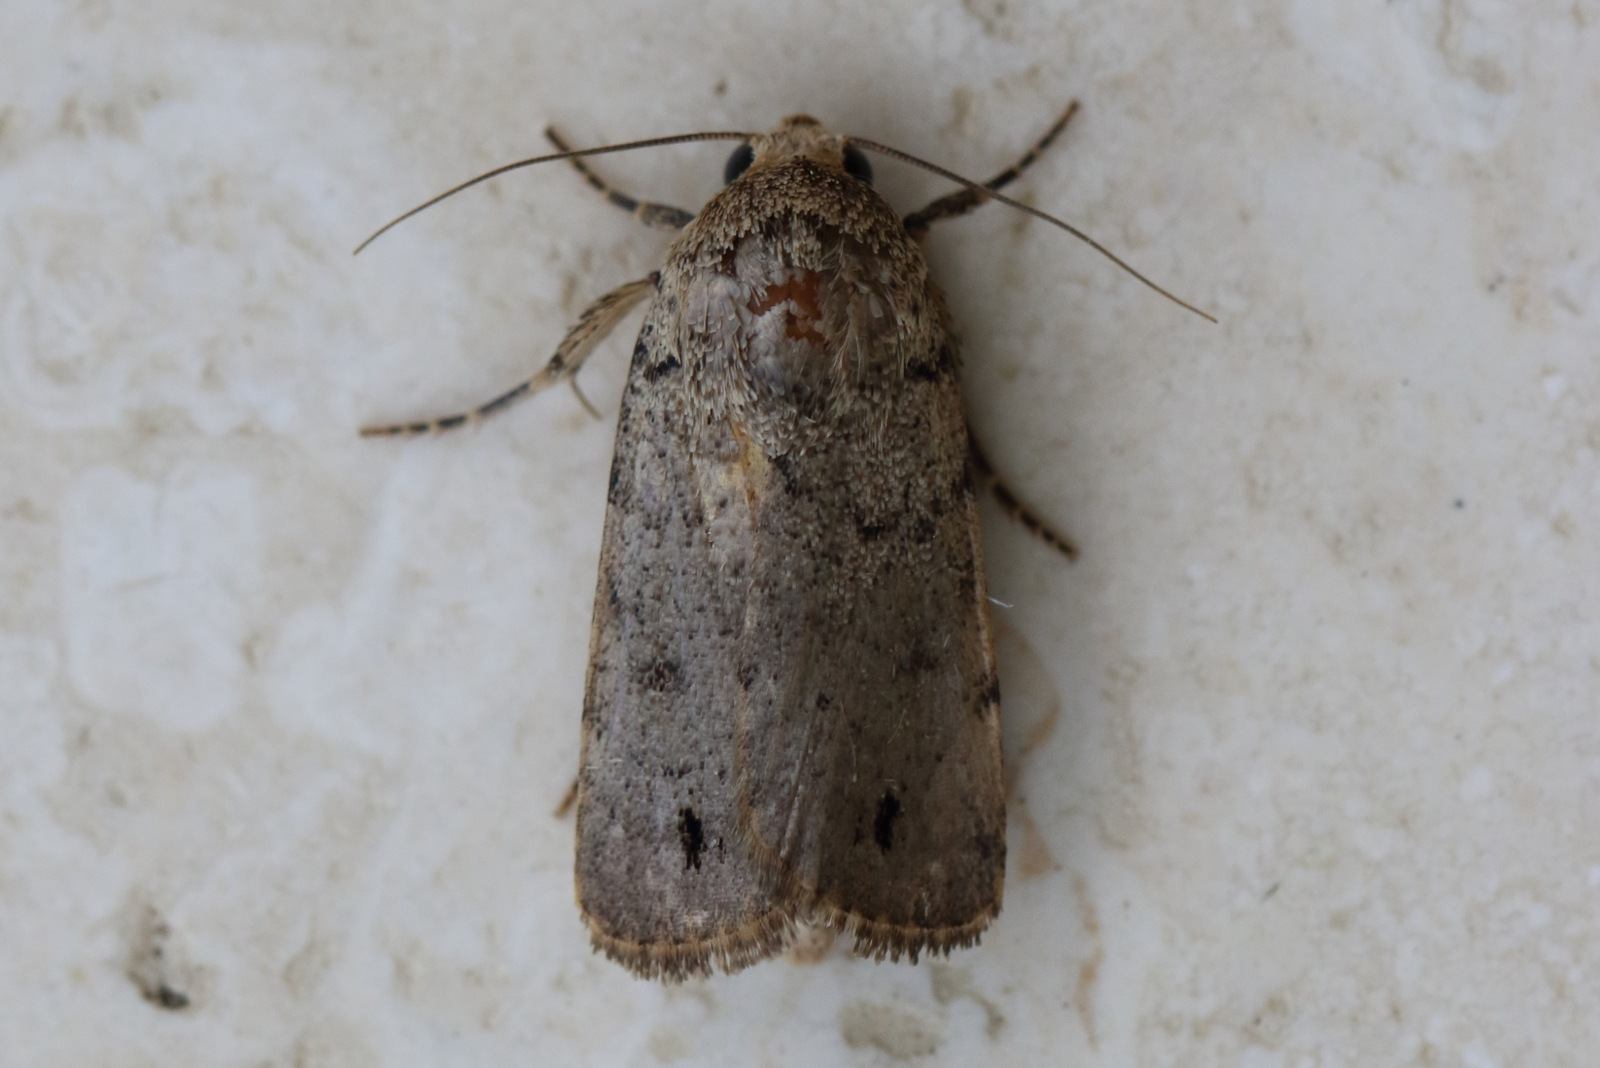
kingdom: Animalia
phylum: Arthropoda
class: Insecta
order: Lepidoptera
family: Noctuidae
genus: Athetis
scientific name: Athetis maculatra
